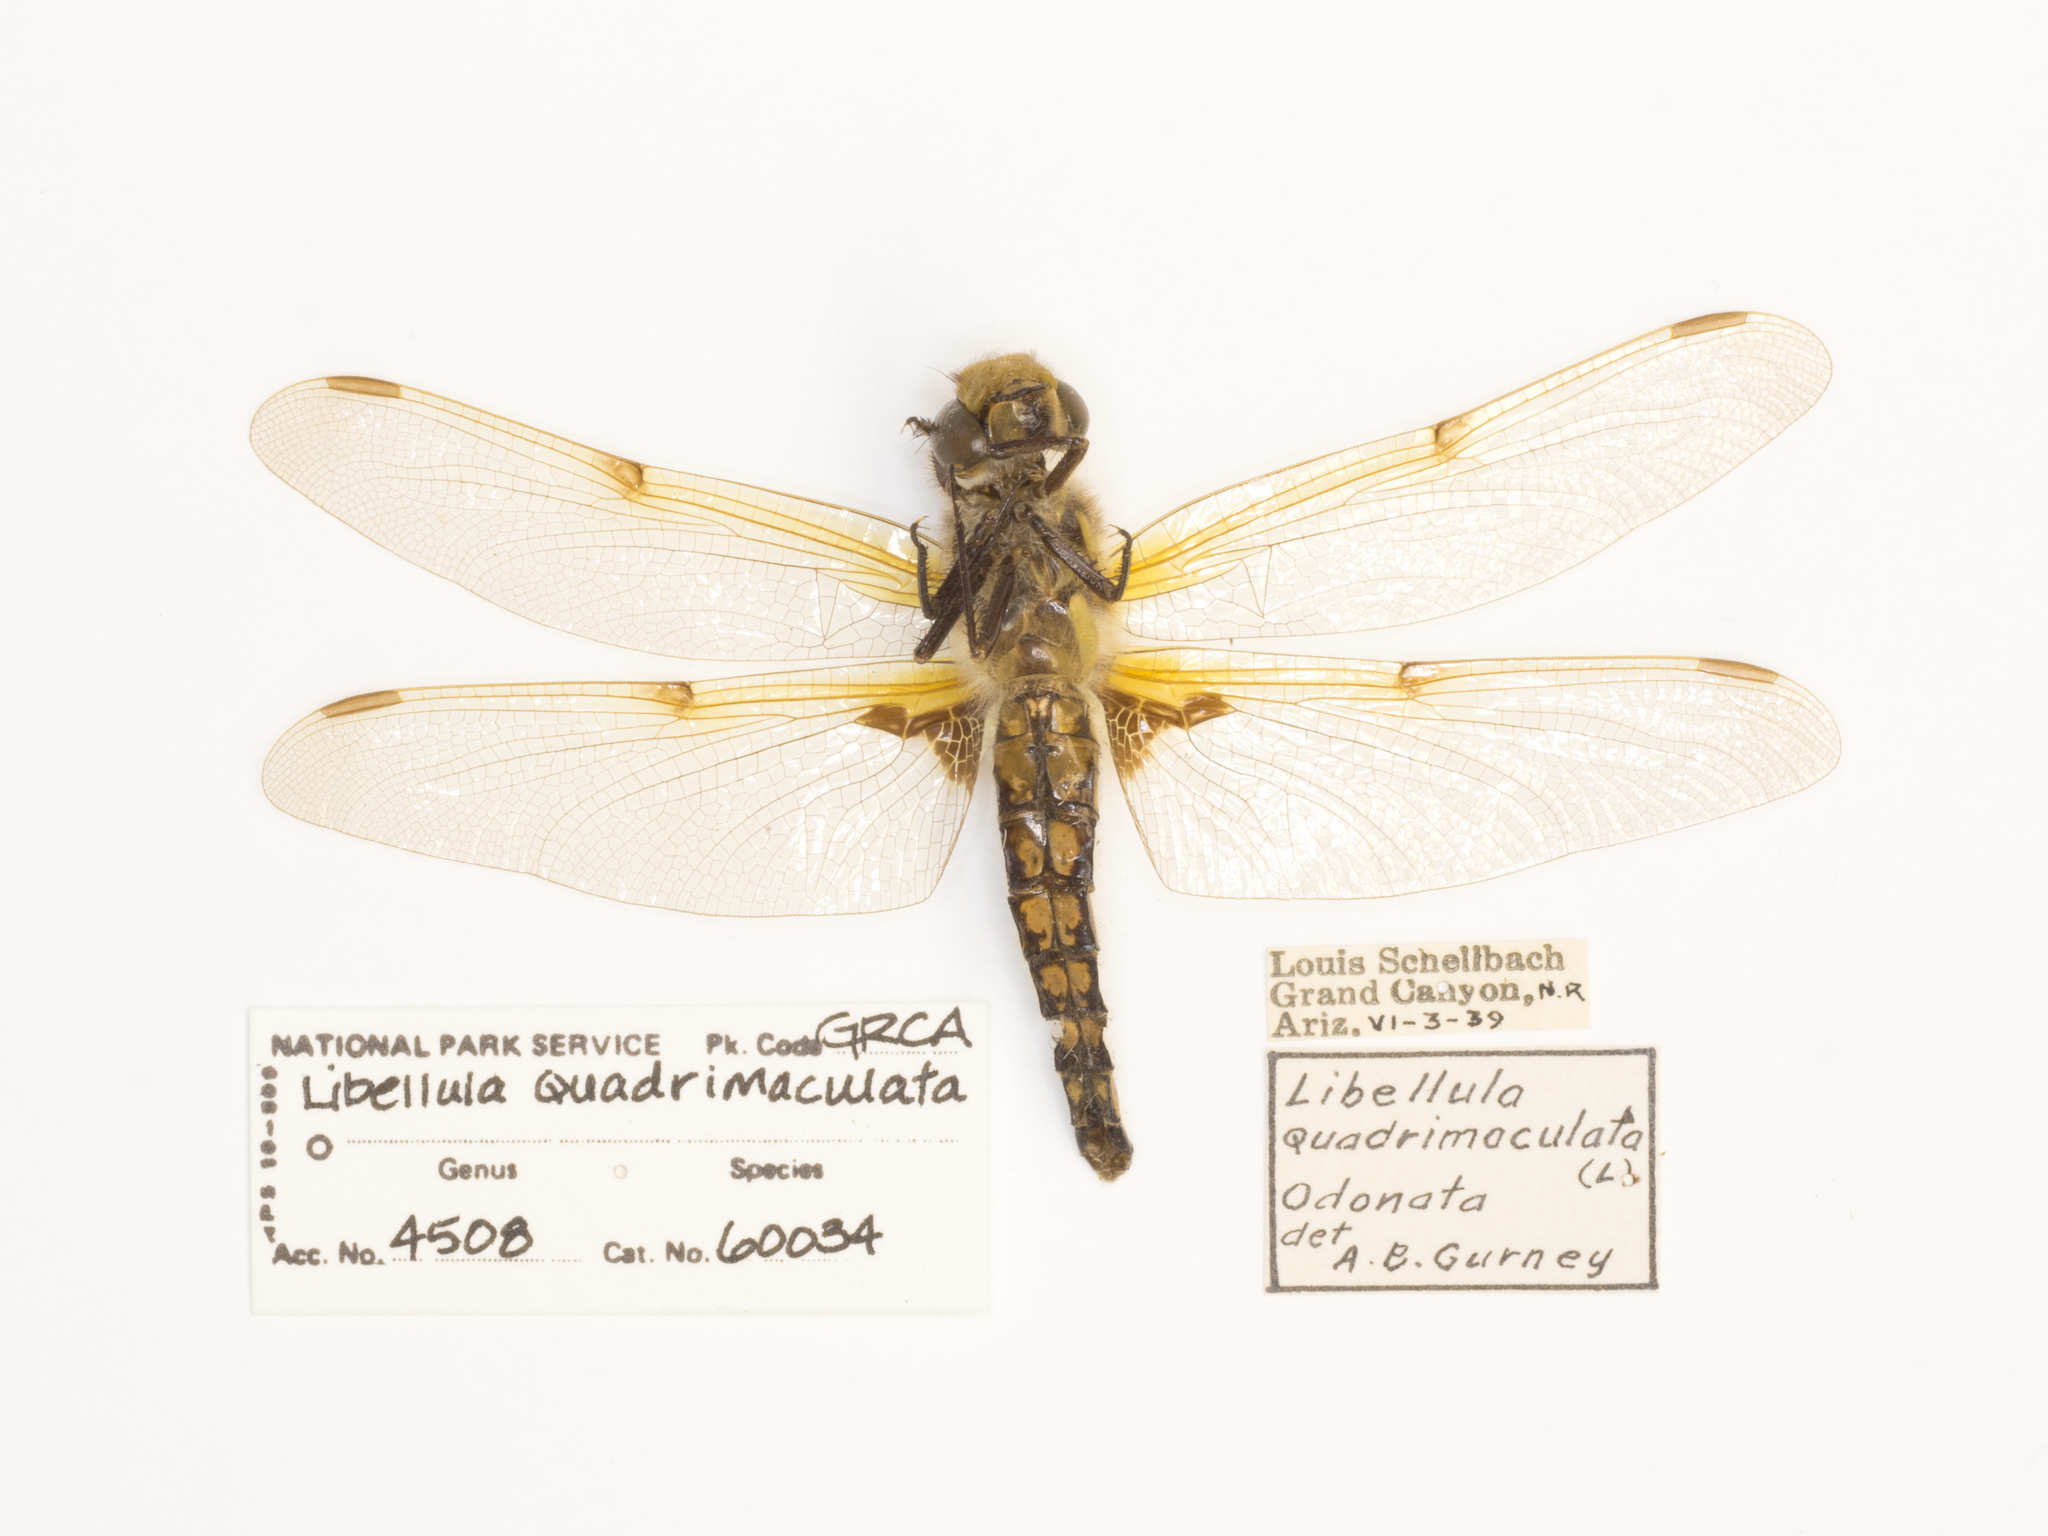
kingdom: Animalia
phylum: Arthropoda
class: Insecta
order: Odonata
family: Libellulidae
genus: Libellula
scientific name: Libellula quadrimaculata
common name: Four-spotted chaser
